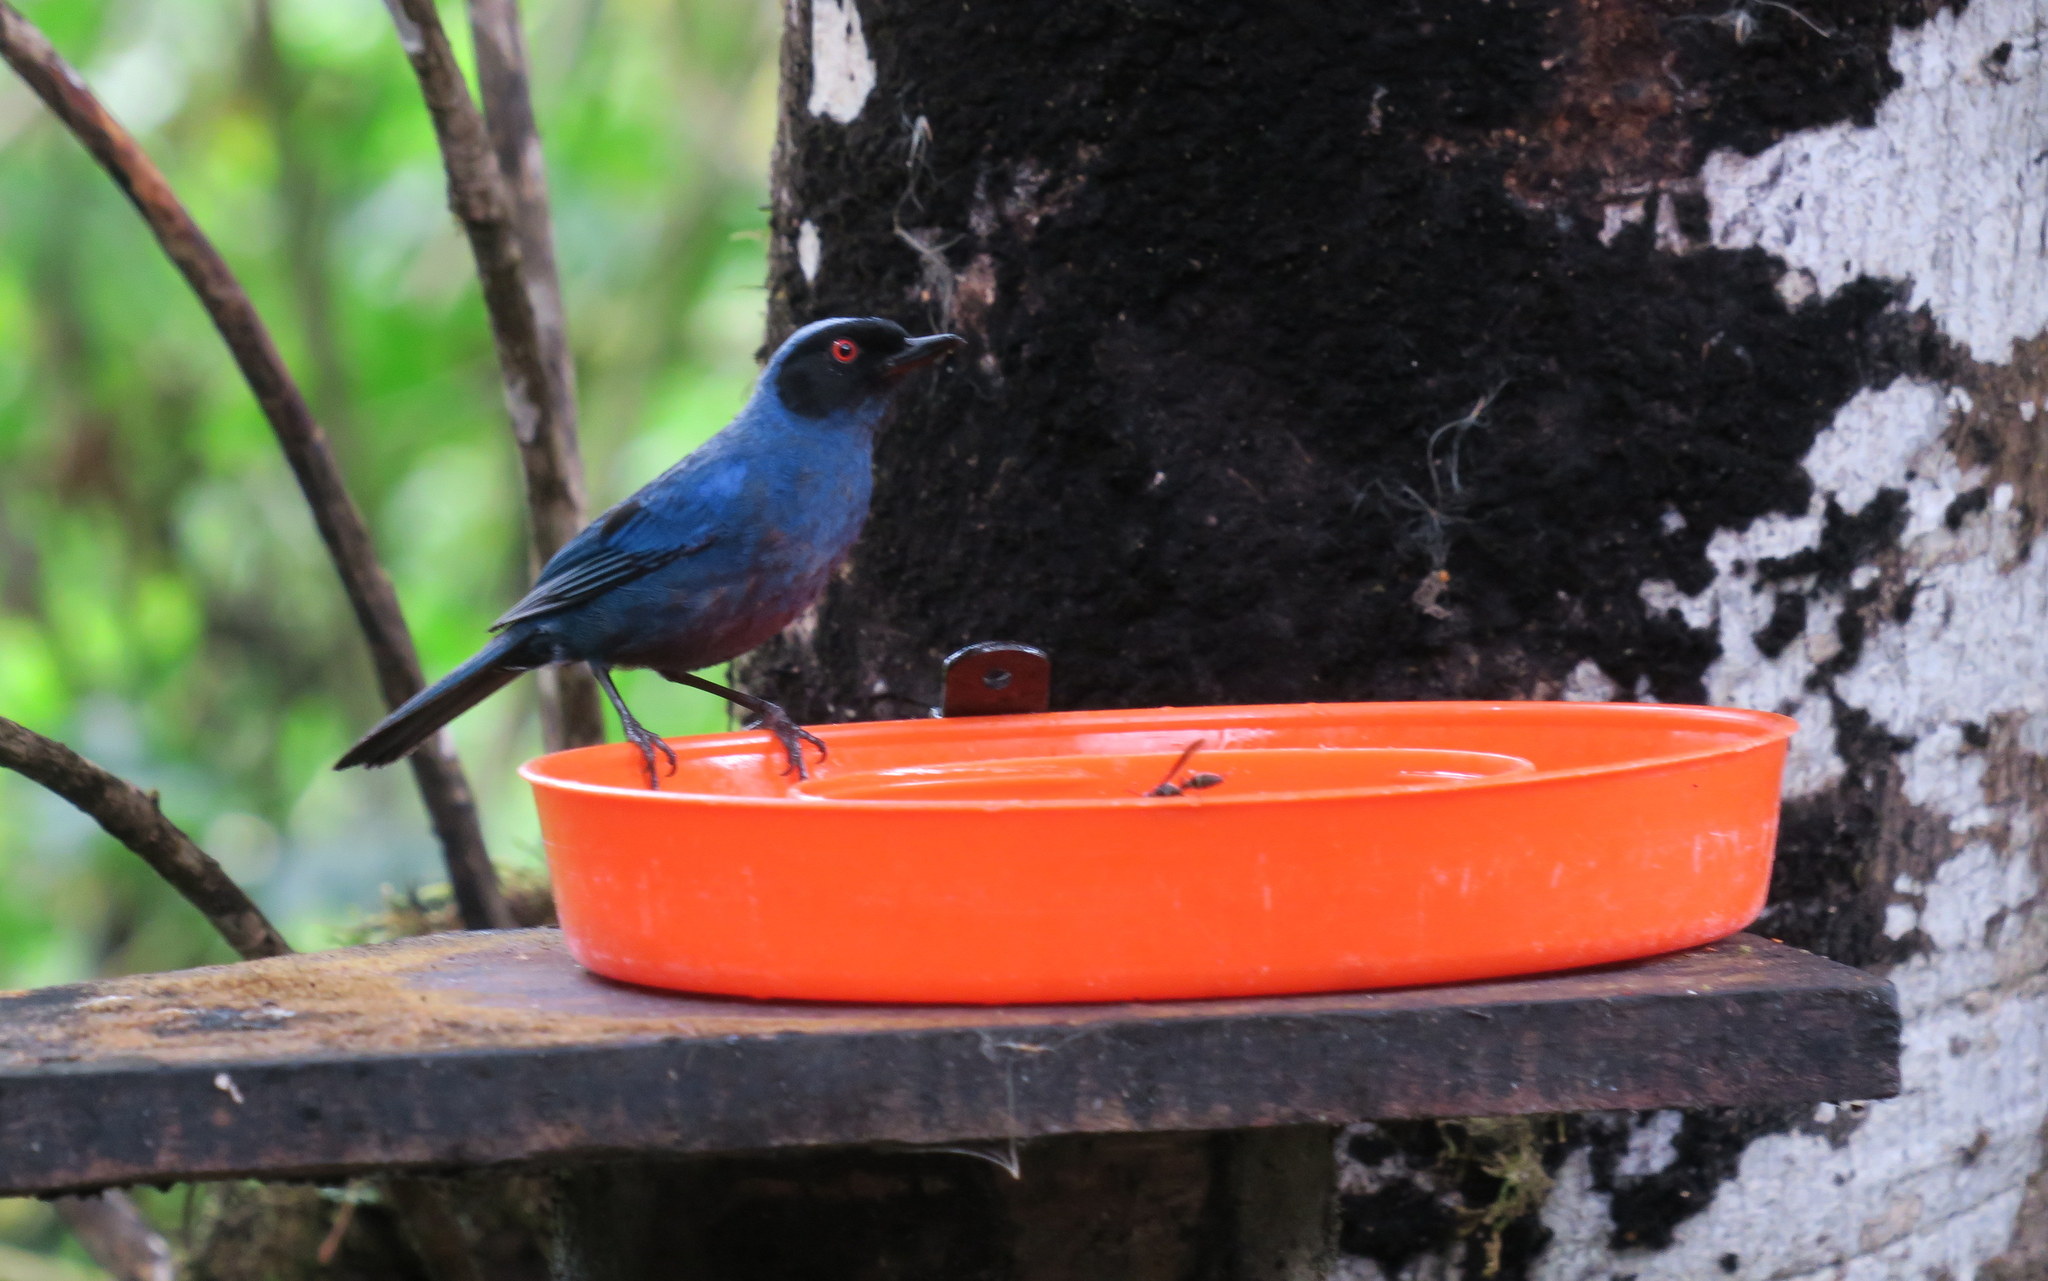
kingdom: Animalia
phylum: Chordata
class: Aves
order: Passeriformes
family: Thraupidae
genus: Diglossa
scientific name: Diglossa cyanea
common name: Masked flowerpiercer
